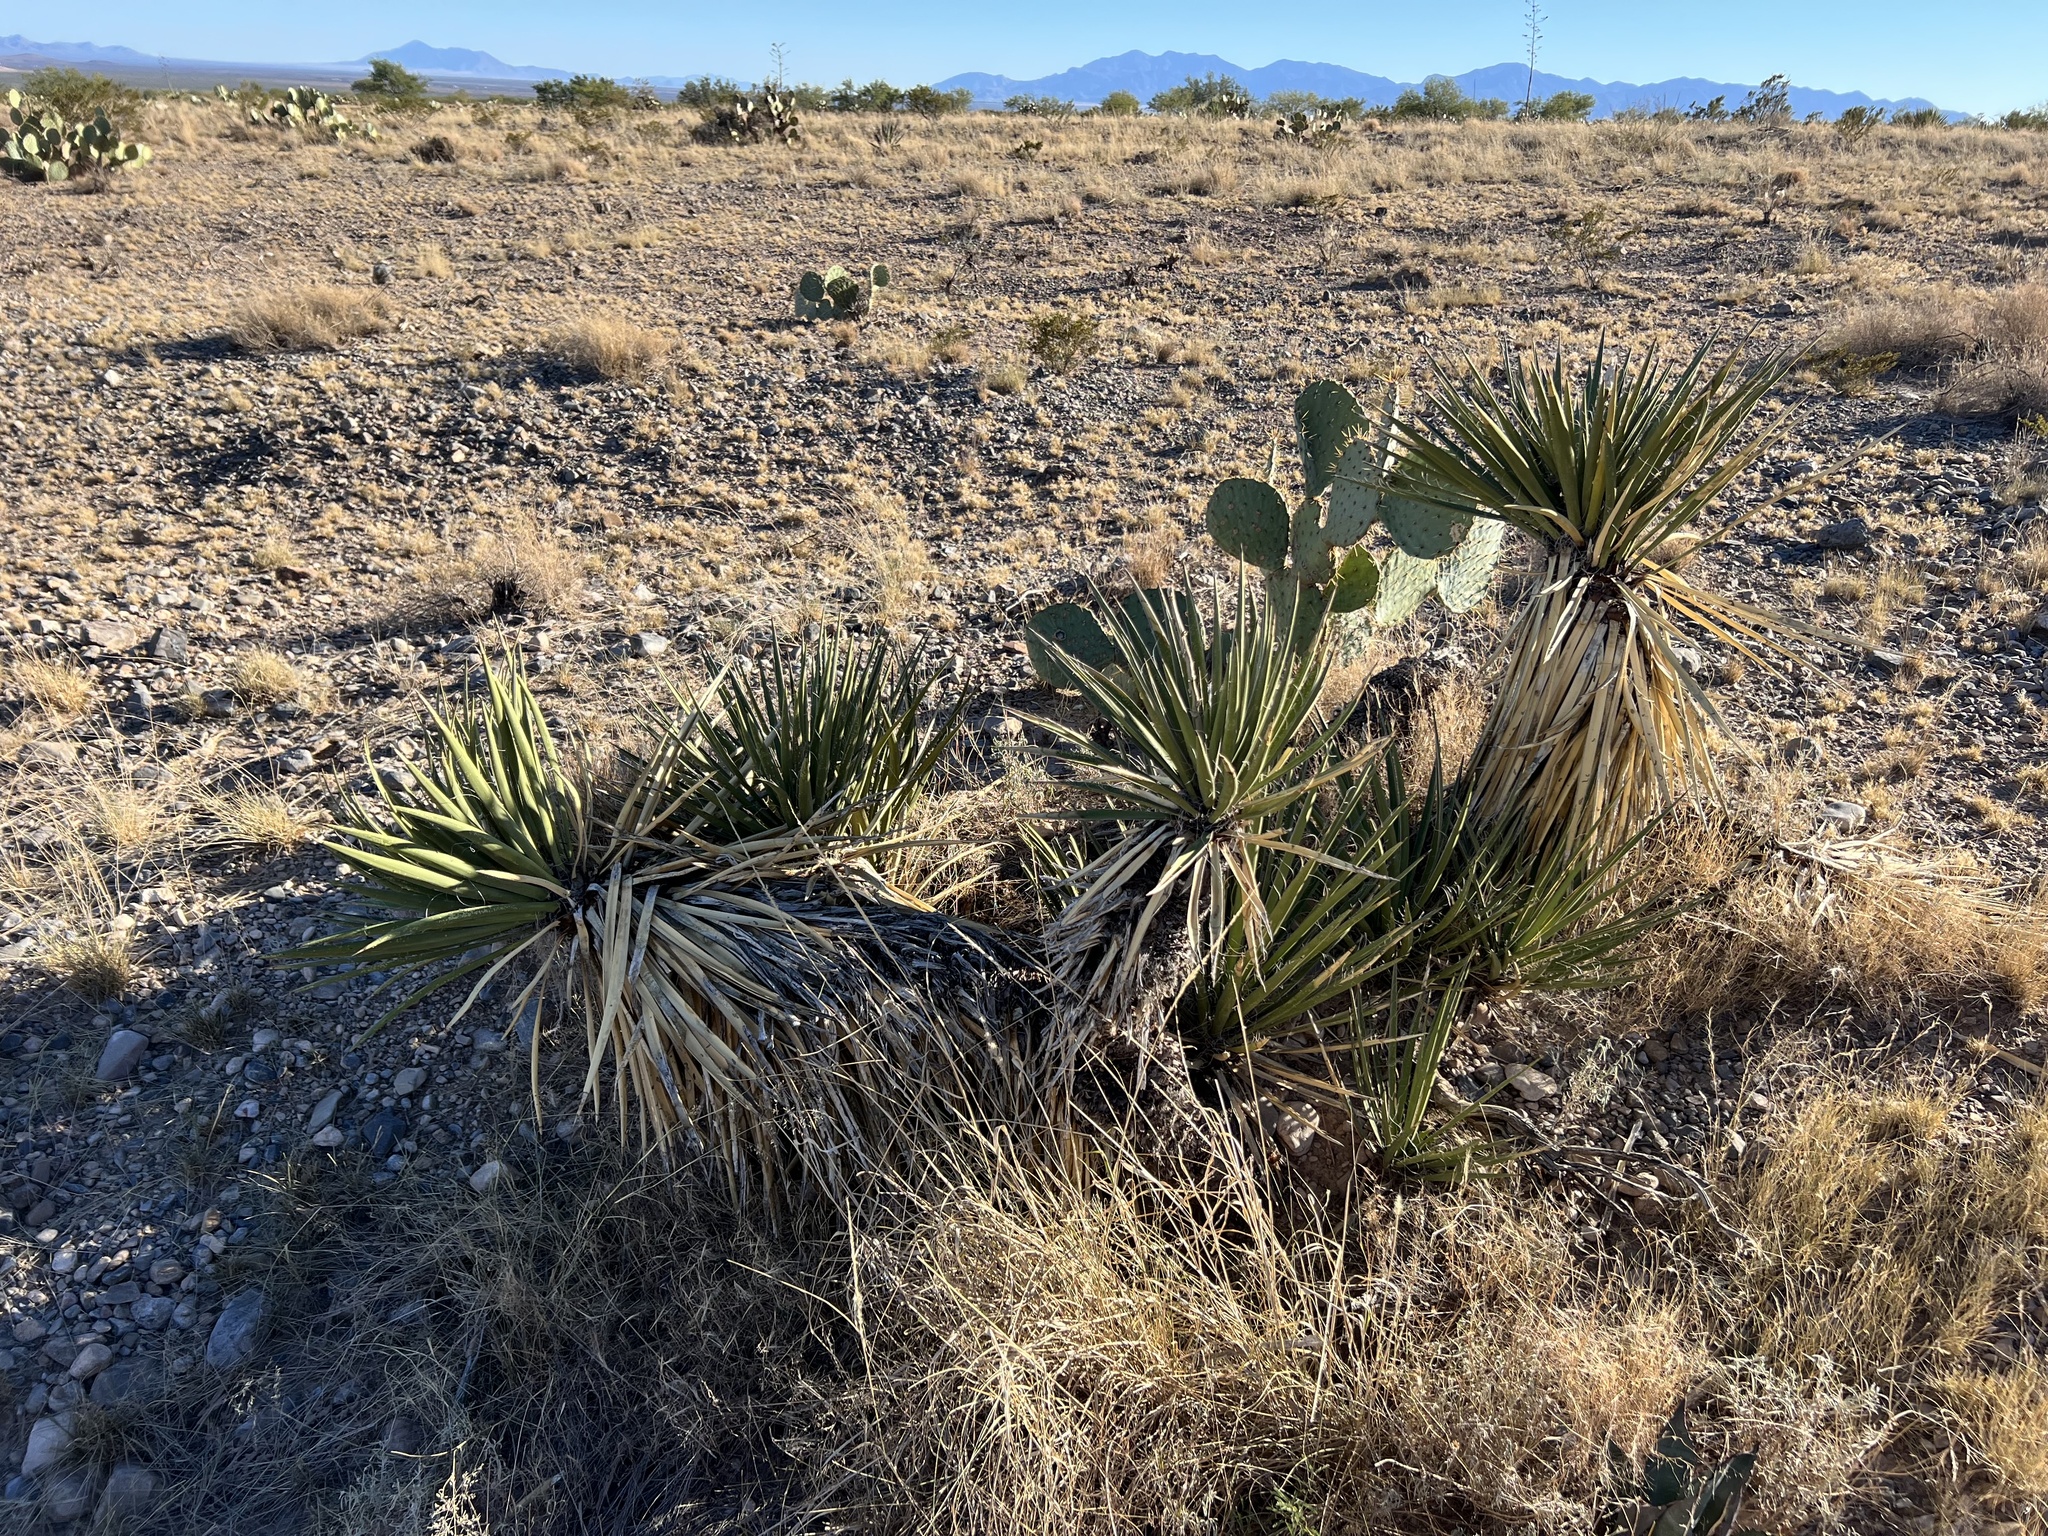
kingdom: Plantae
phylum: Tracheophyta
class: Liliopsida
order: Asparagales
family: Asparagaceae
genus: Yucca
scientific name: Yucca baccata
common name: Banana yucca
